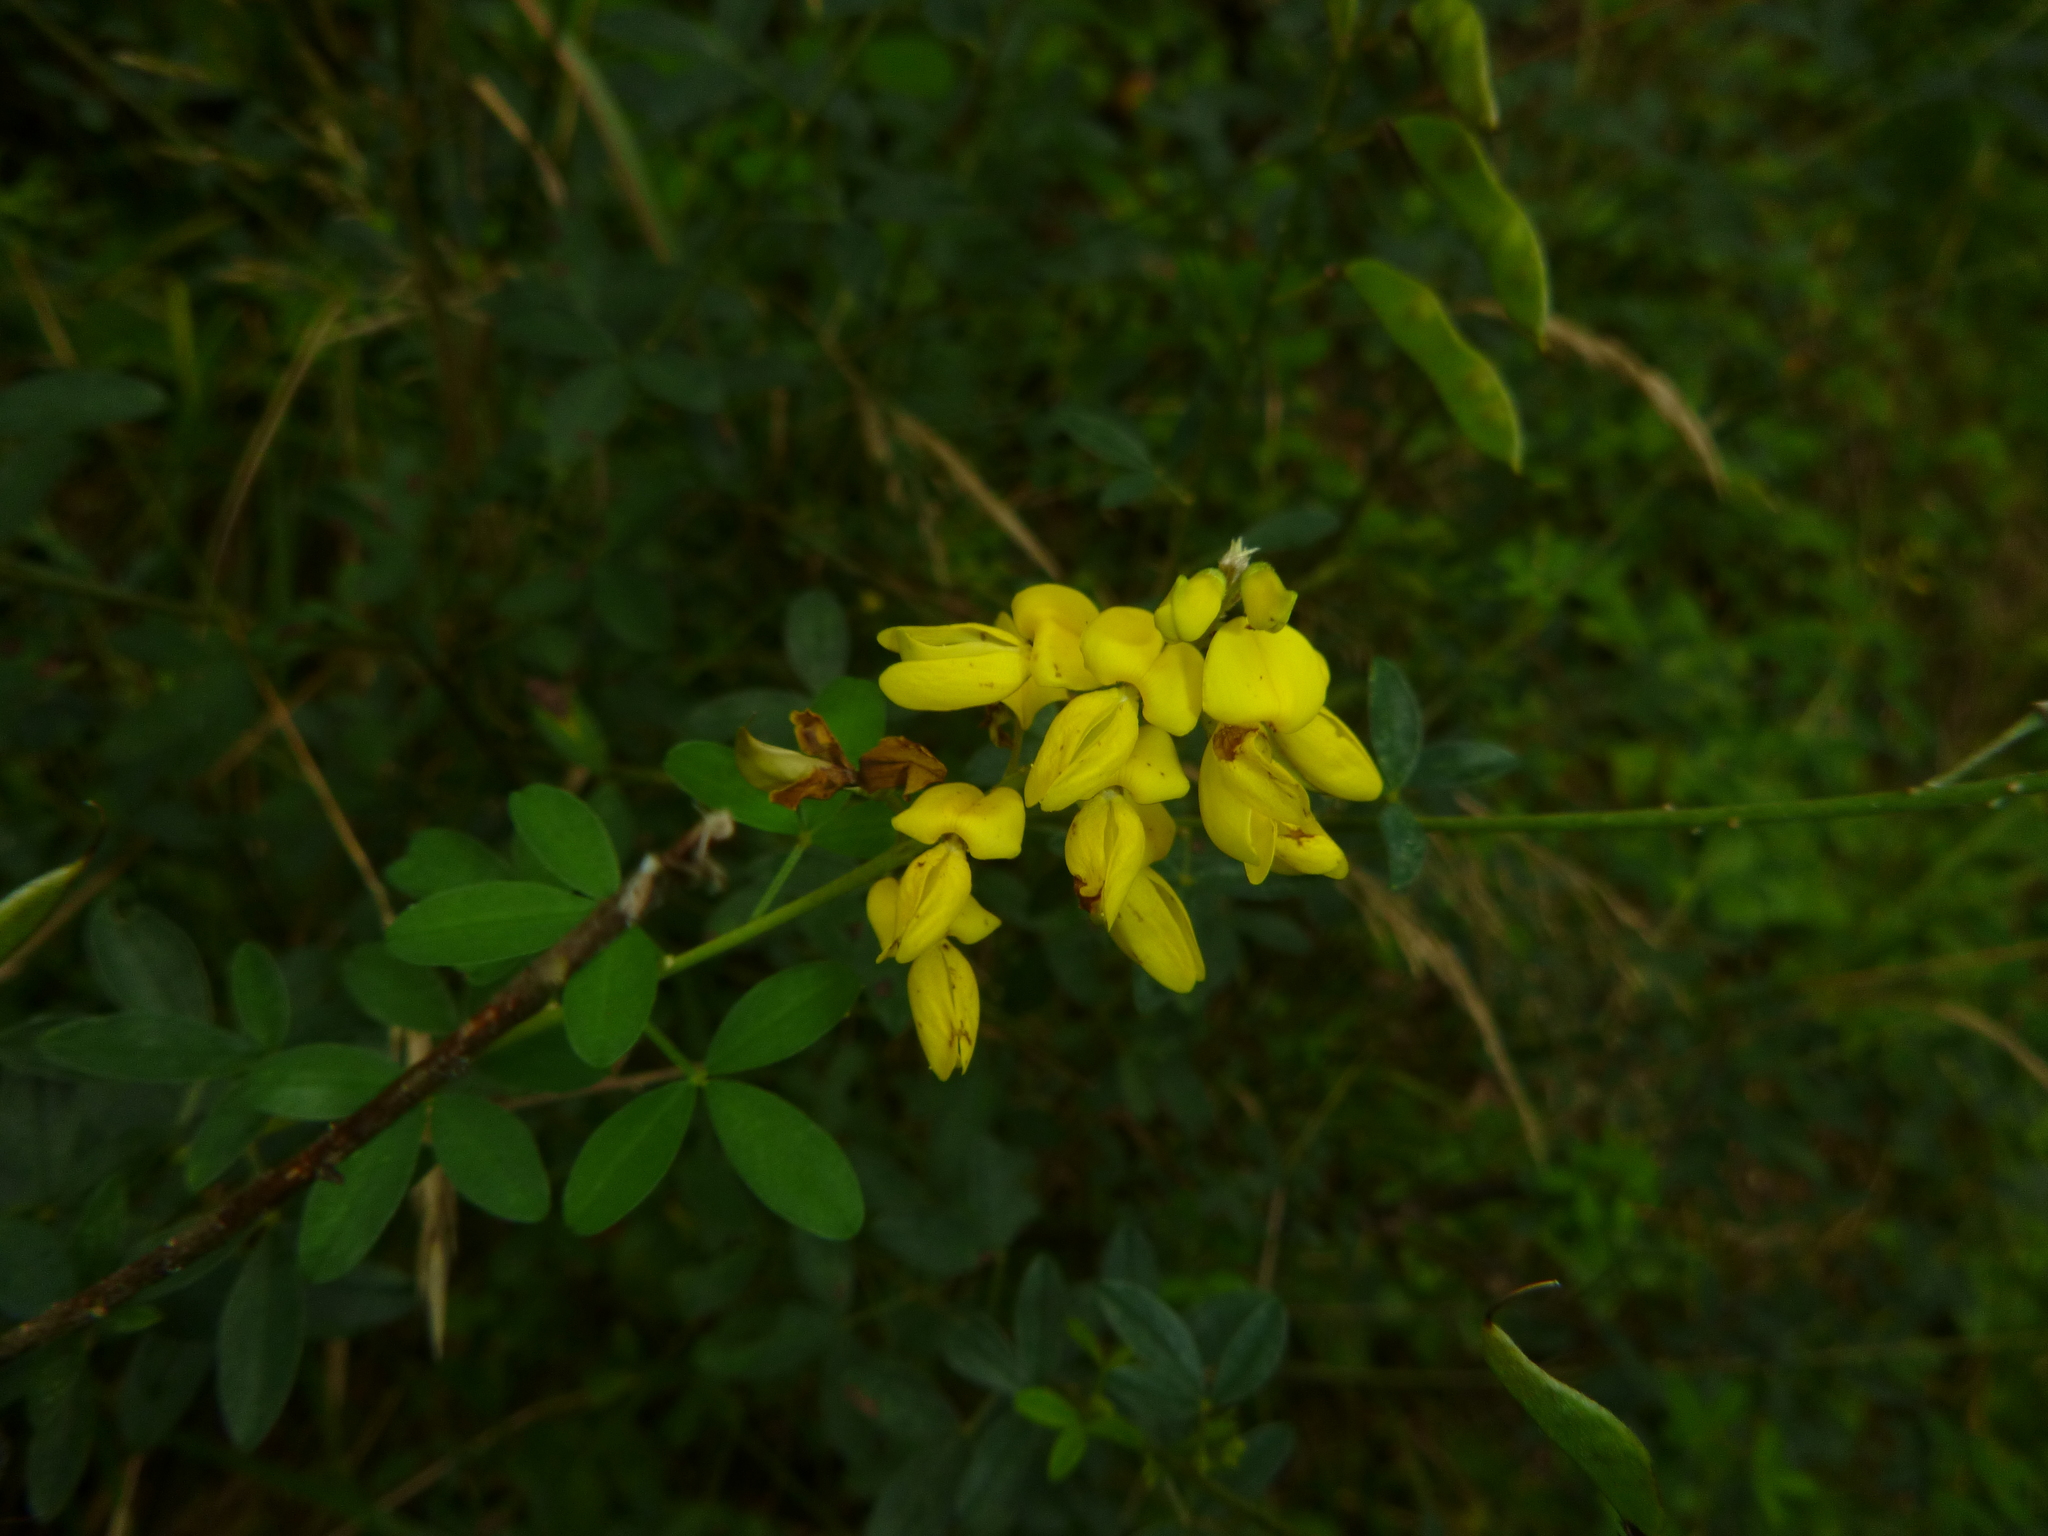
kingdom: Plantae
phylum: Tracheophyta
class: Magnoliopsida
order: Fabales
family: Fabaceae
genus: Cytisus
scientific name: Cytisus nigricans
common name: Black broom
